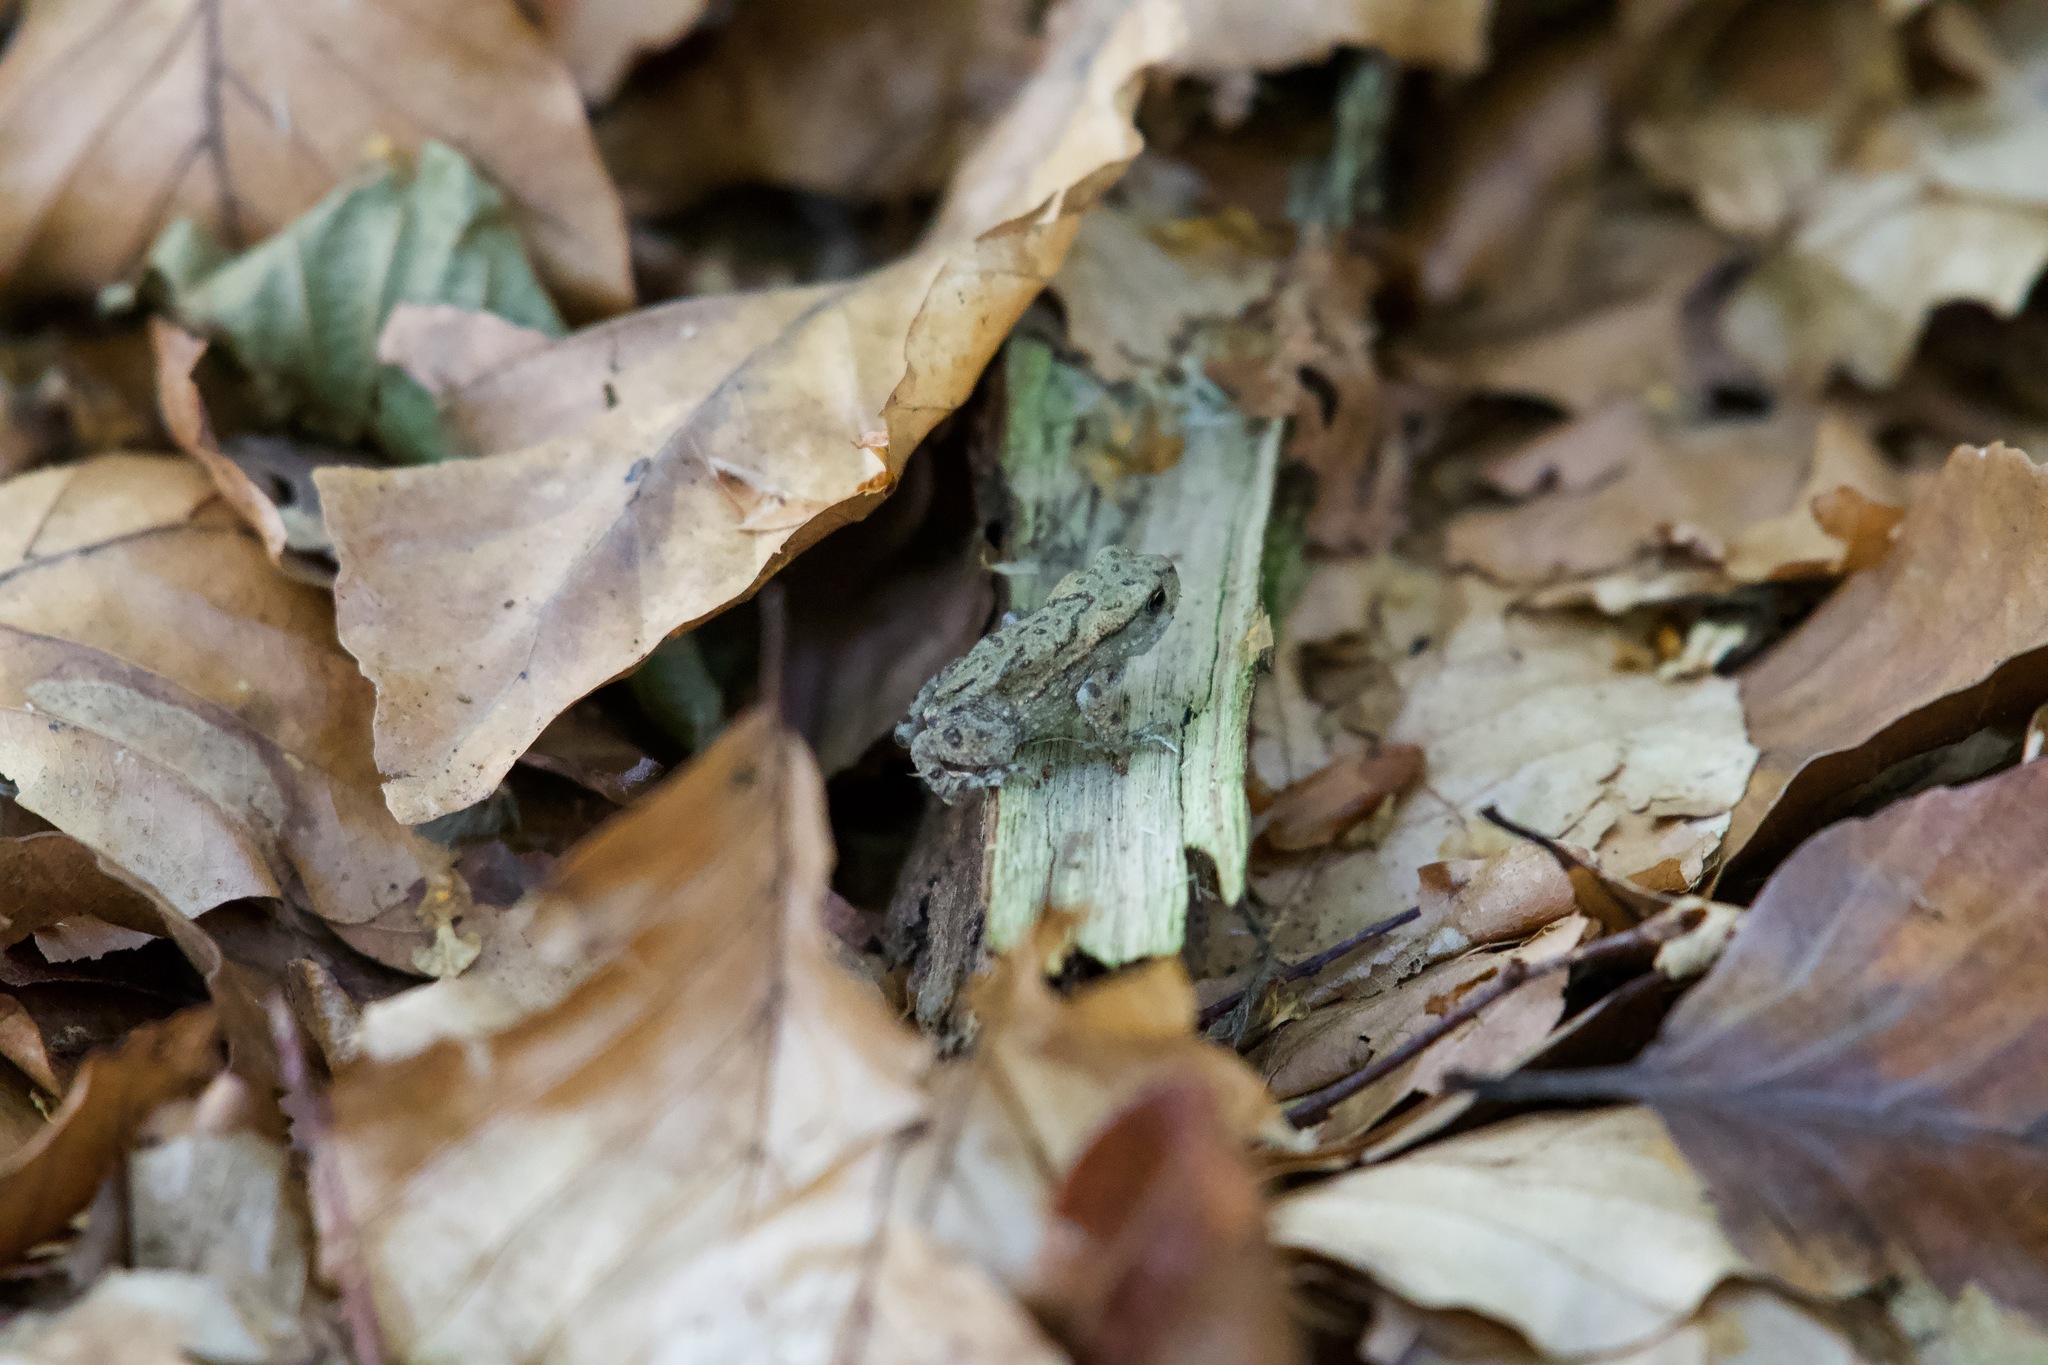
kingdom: Animalia
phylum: Chordata
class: Amphibia
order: Anura
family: Bufonidae
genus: Bufo
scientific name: Bufo bufo
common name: Common toad
